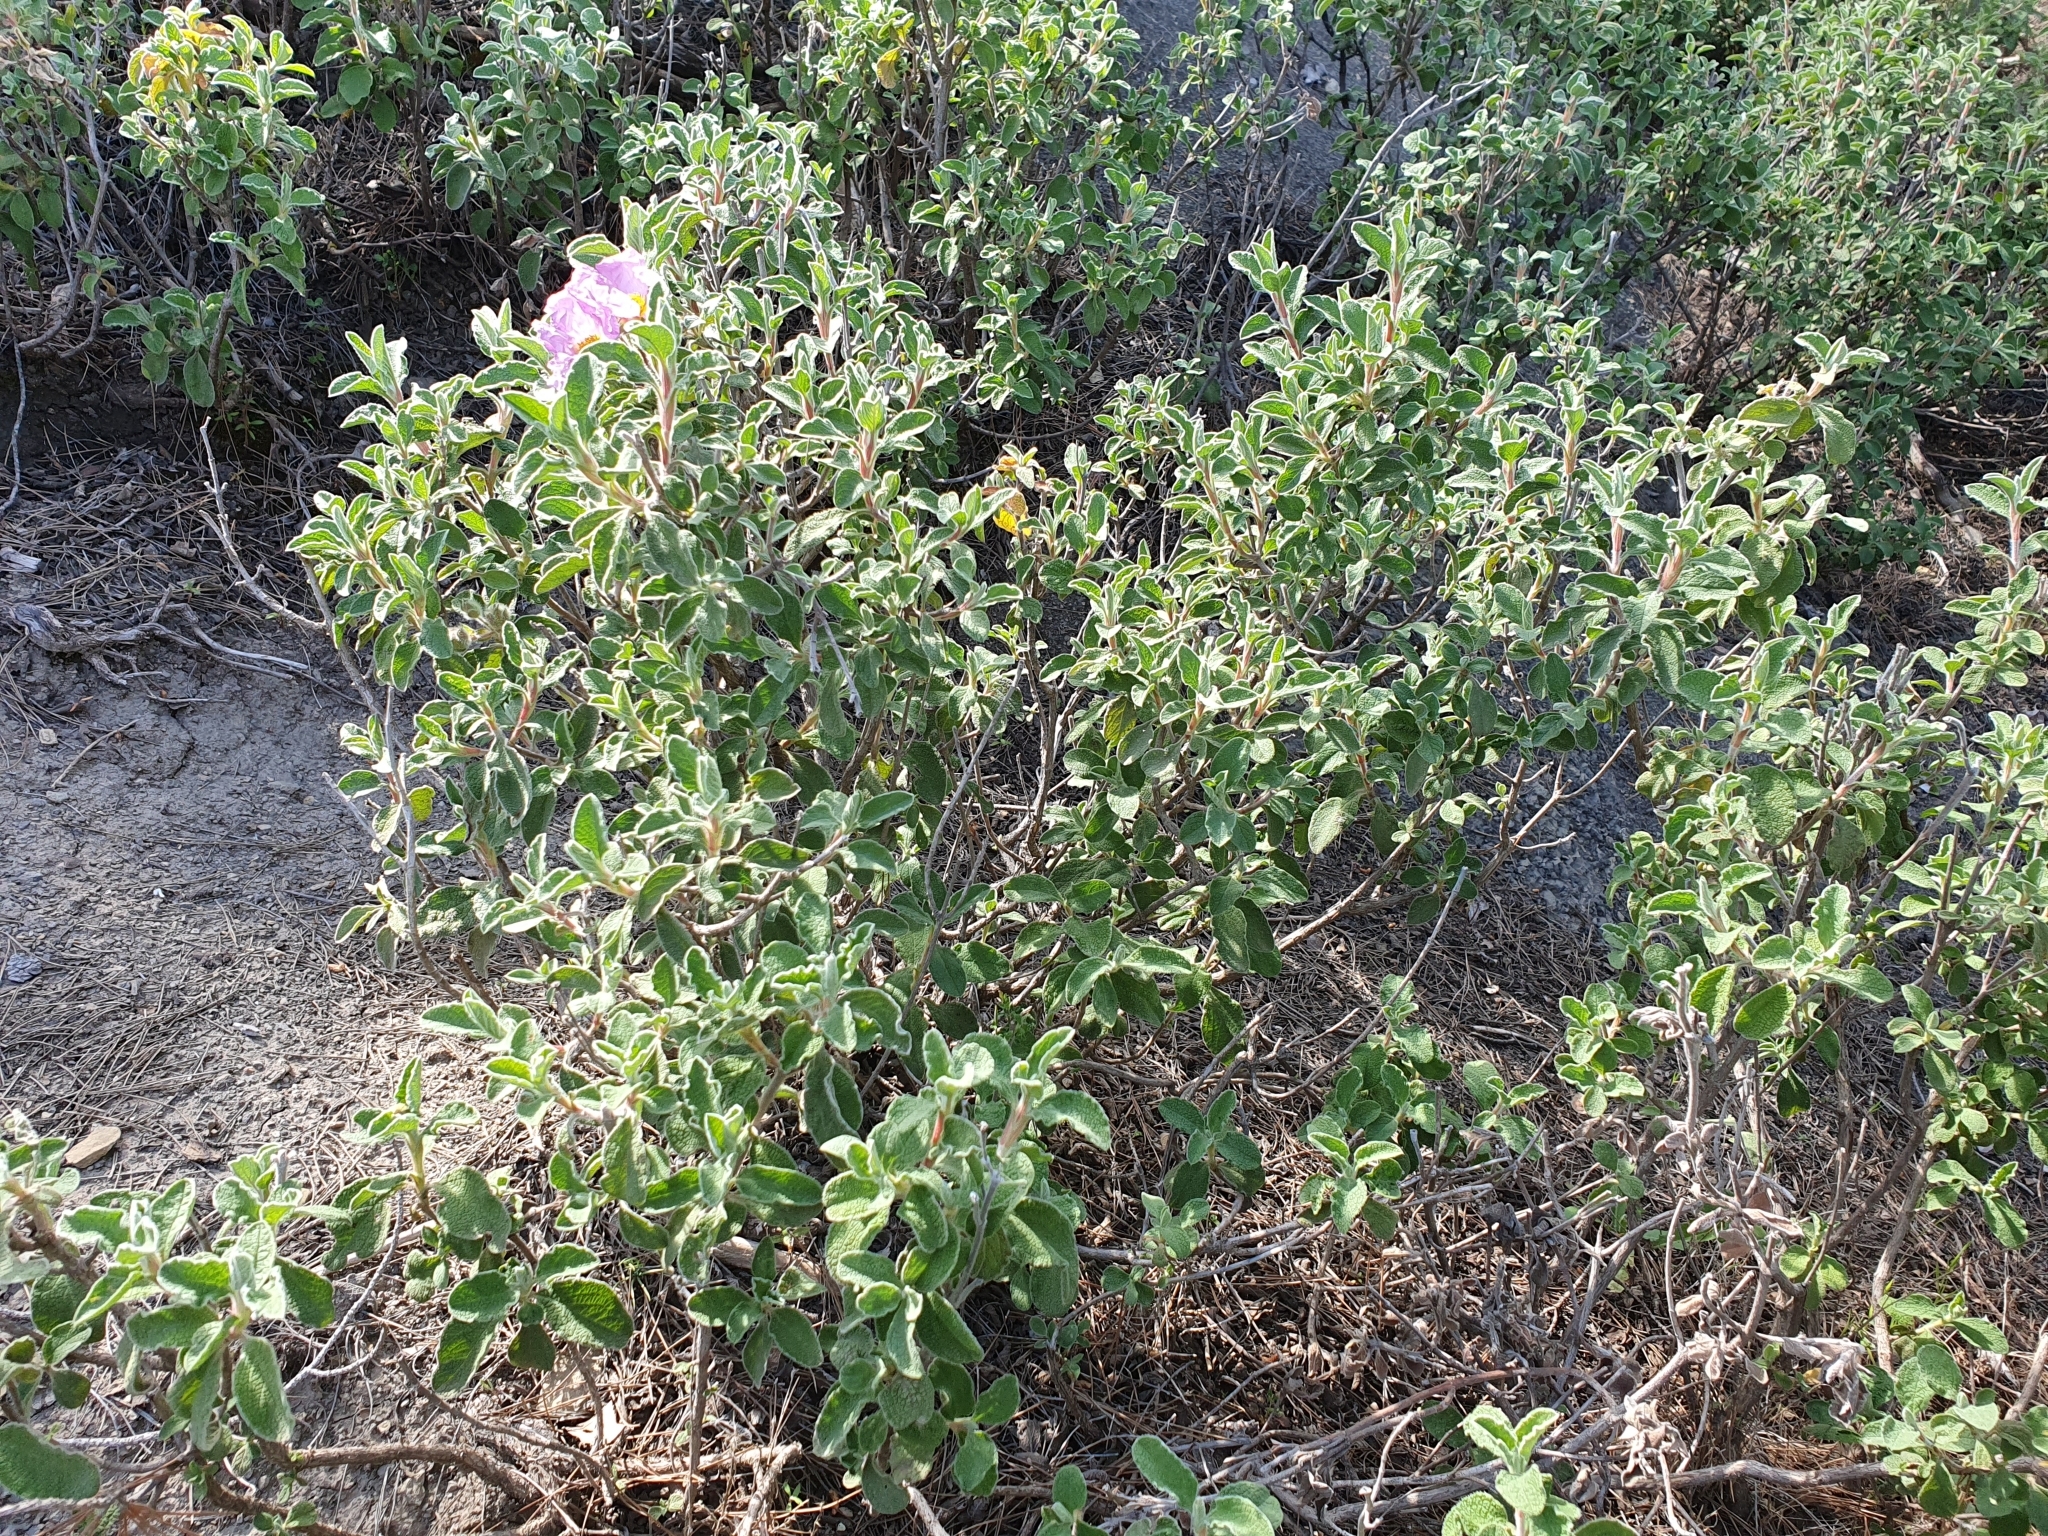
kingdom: Plantae
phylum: Tracheophyta
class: Magnoliopsida
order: Malvales
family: Cistaceae
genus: Cistus
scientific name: Cistus creticus
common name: Cretan rockrose
